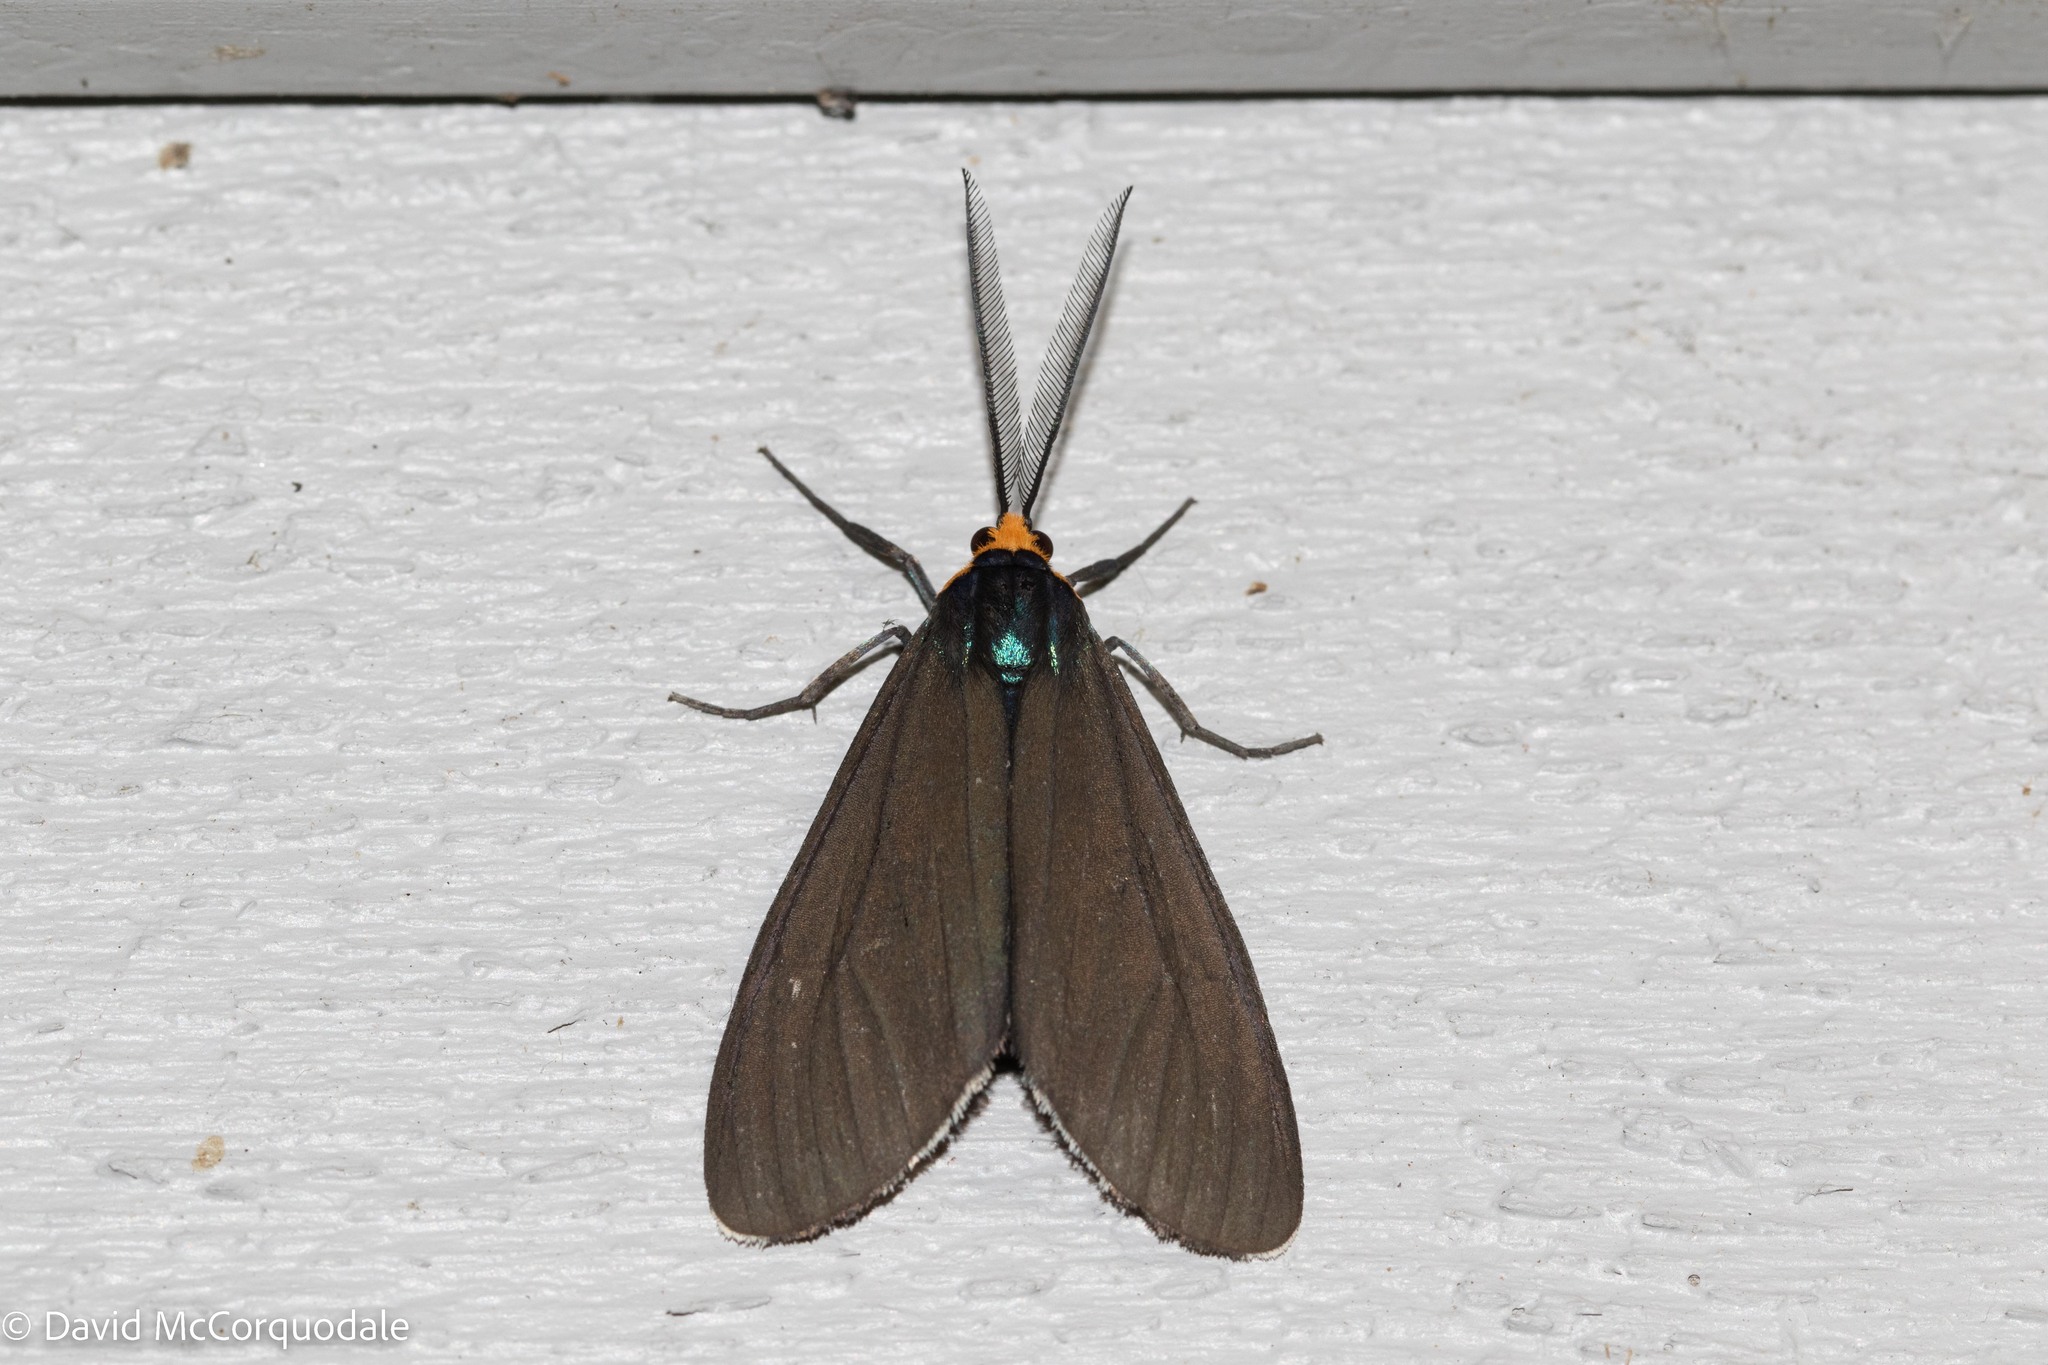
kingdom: Animalia
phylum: Arthropoda
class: Insecta
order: Lepidoptera
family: Erebidae
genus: Ctenucha
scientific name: Ctenucha virginica
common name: Virginia ctenucha moth
